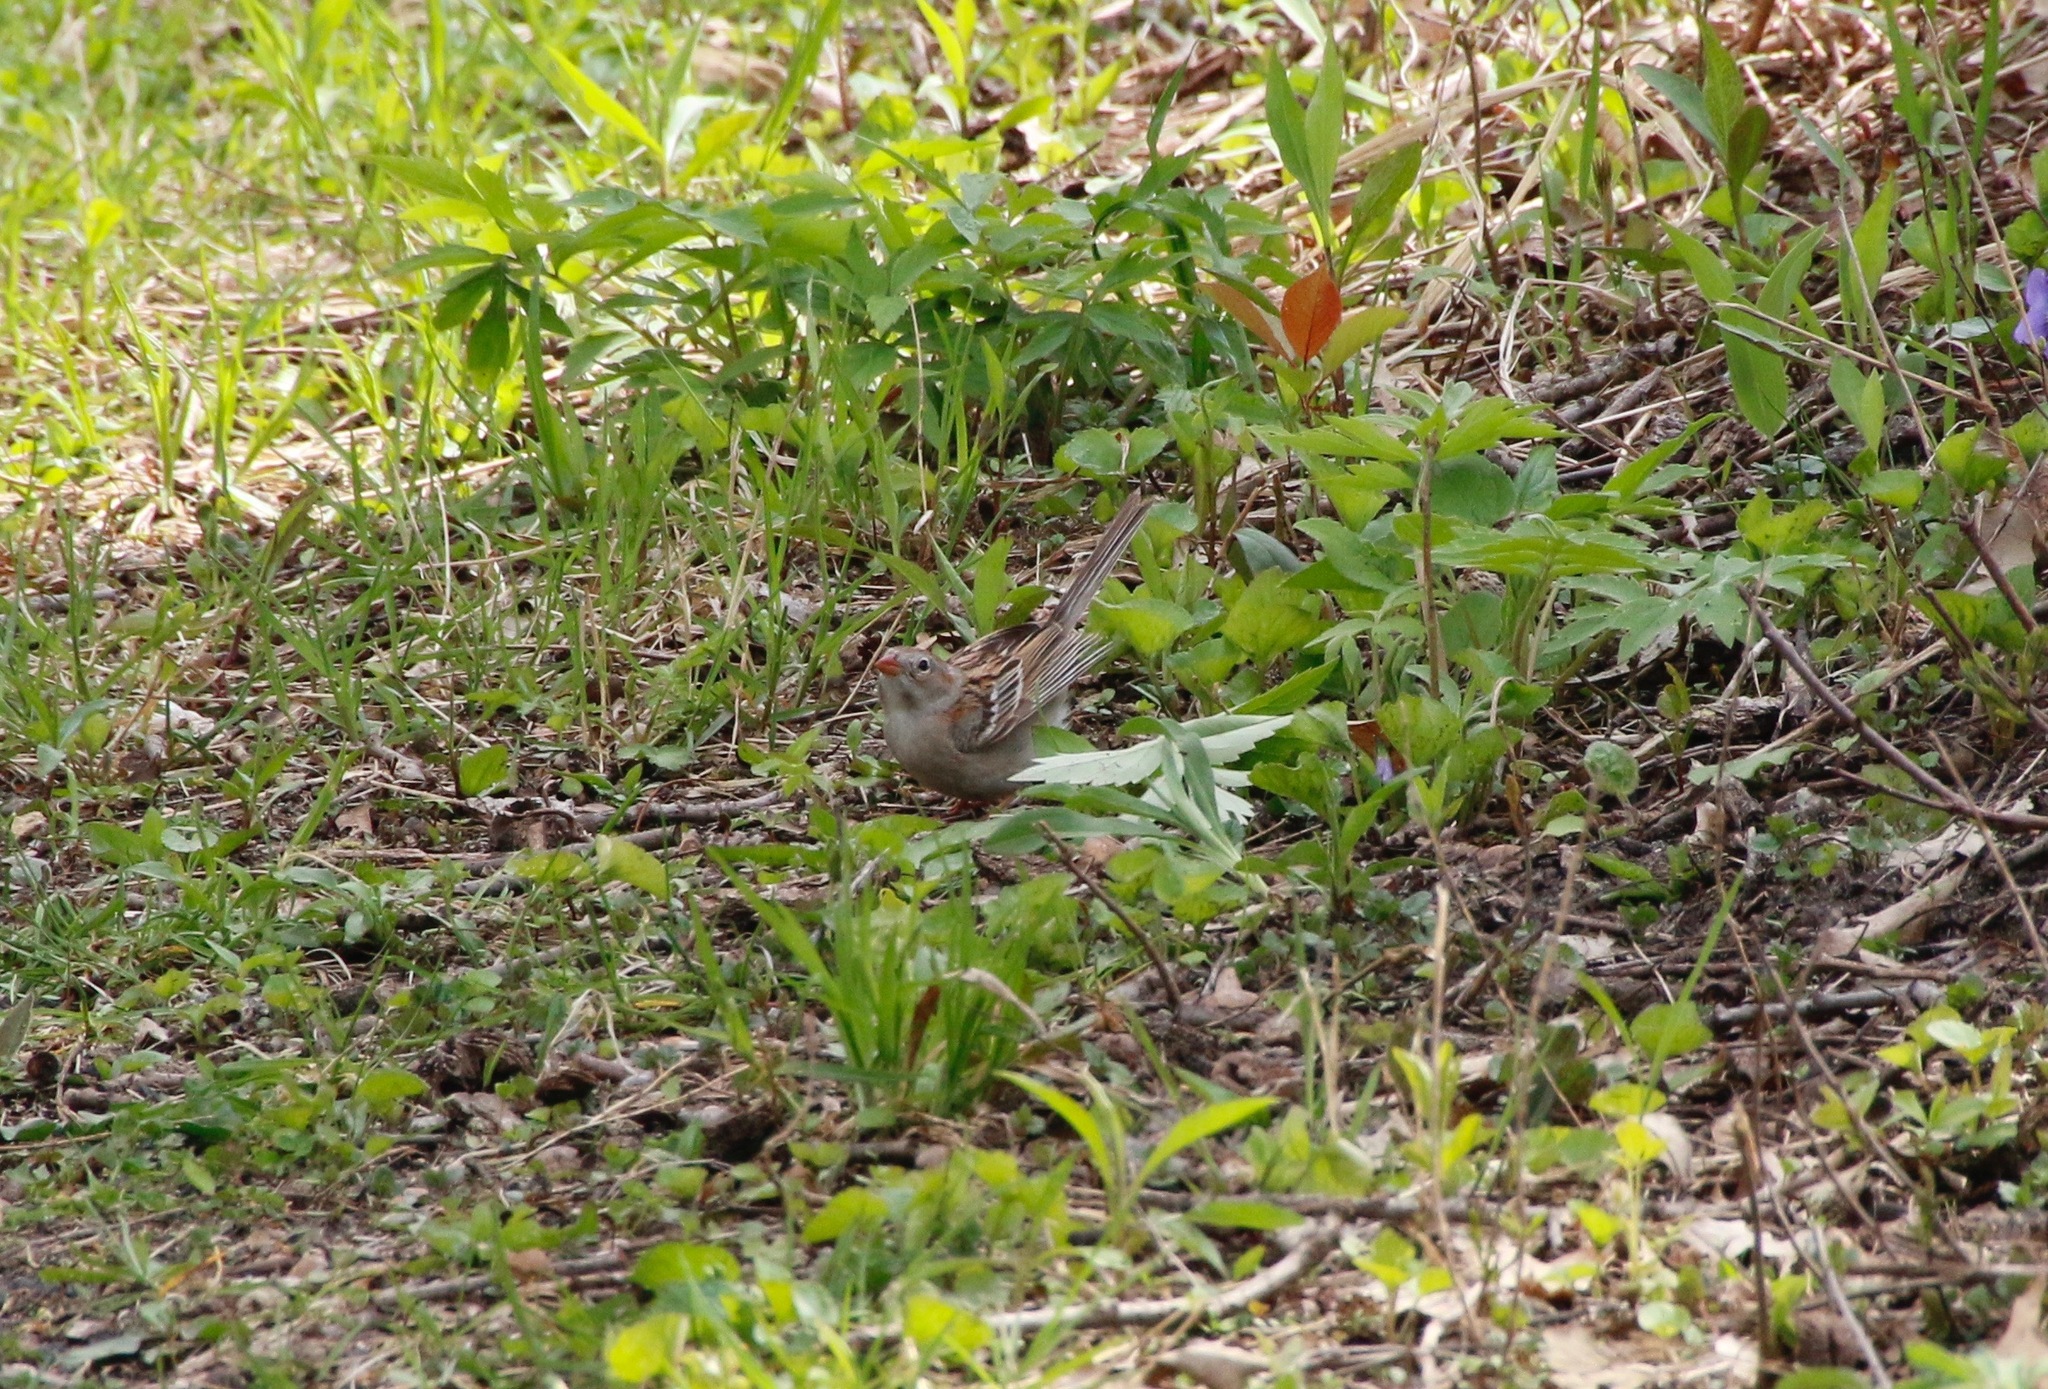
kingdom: Animalia
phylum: Chordata
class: Aves
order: Passeriformes
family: Passerellidae
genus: Spizella
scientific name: Spizella pusilla
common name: Field sparrow
